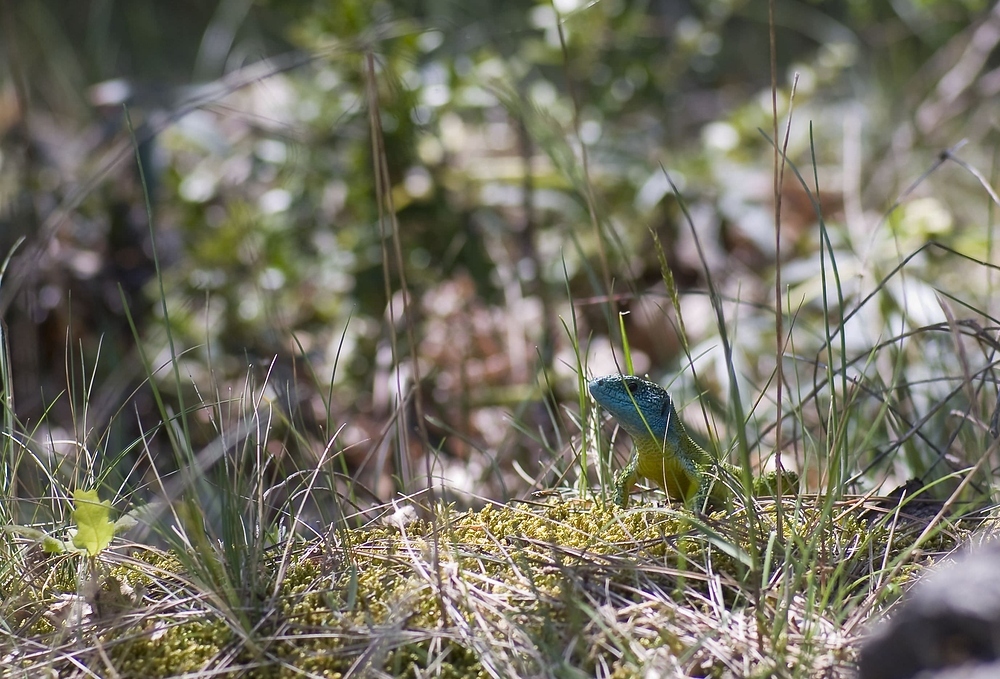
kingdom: Animalia
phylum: Chordata
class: Squamata
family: Lacertidae
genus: Lacerta
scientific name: Lacerta bilineata
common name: Western green lizard
